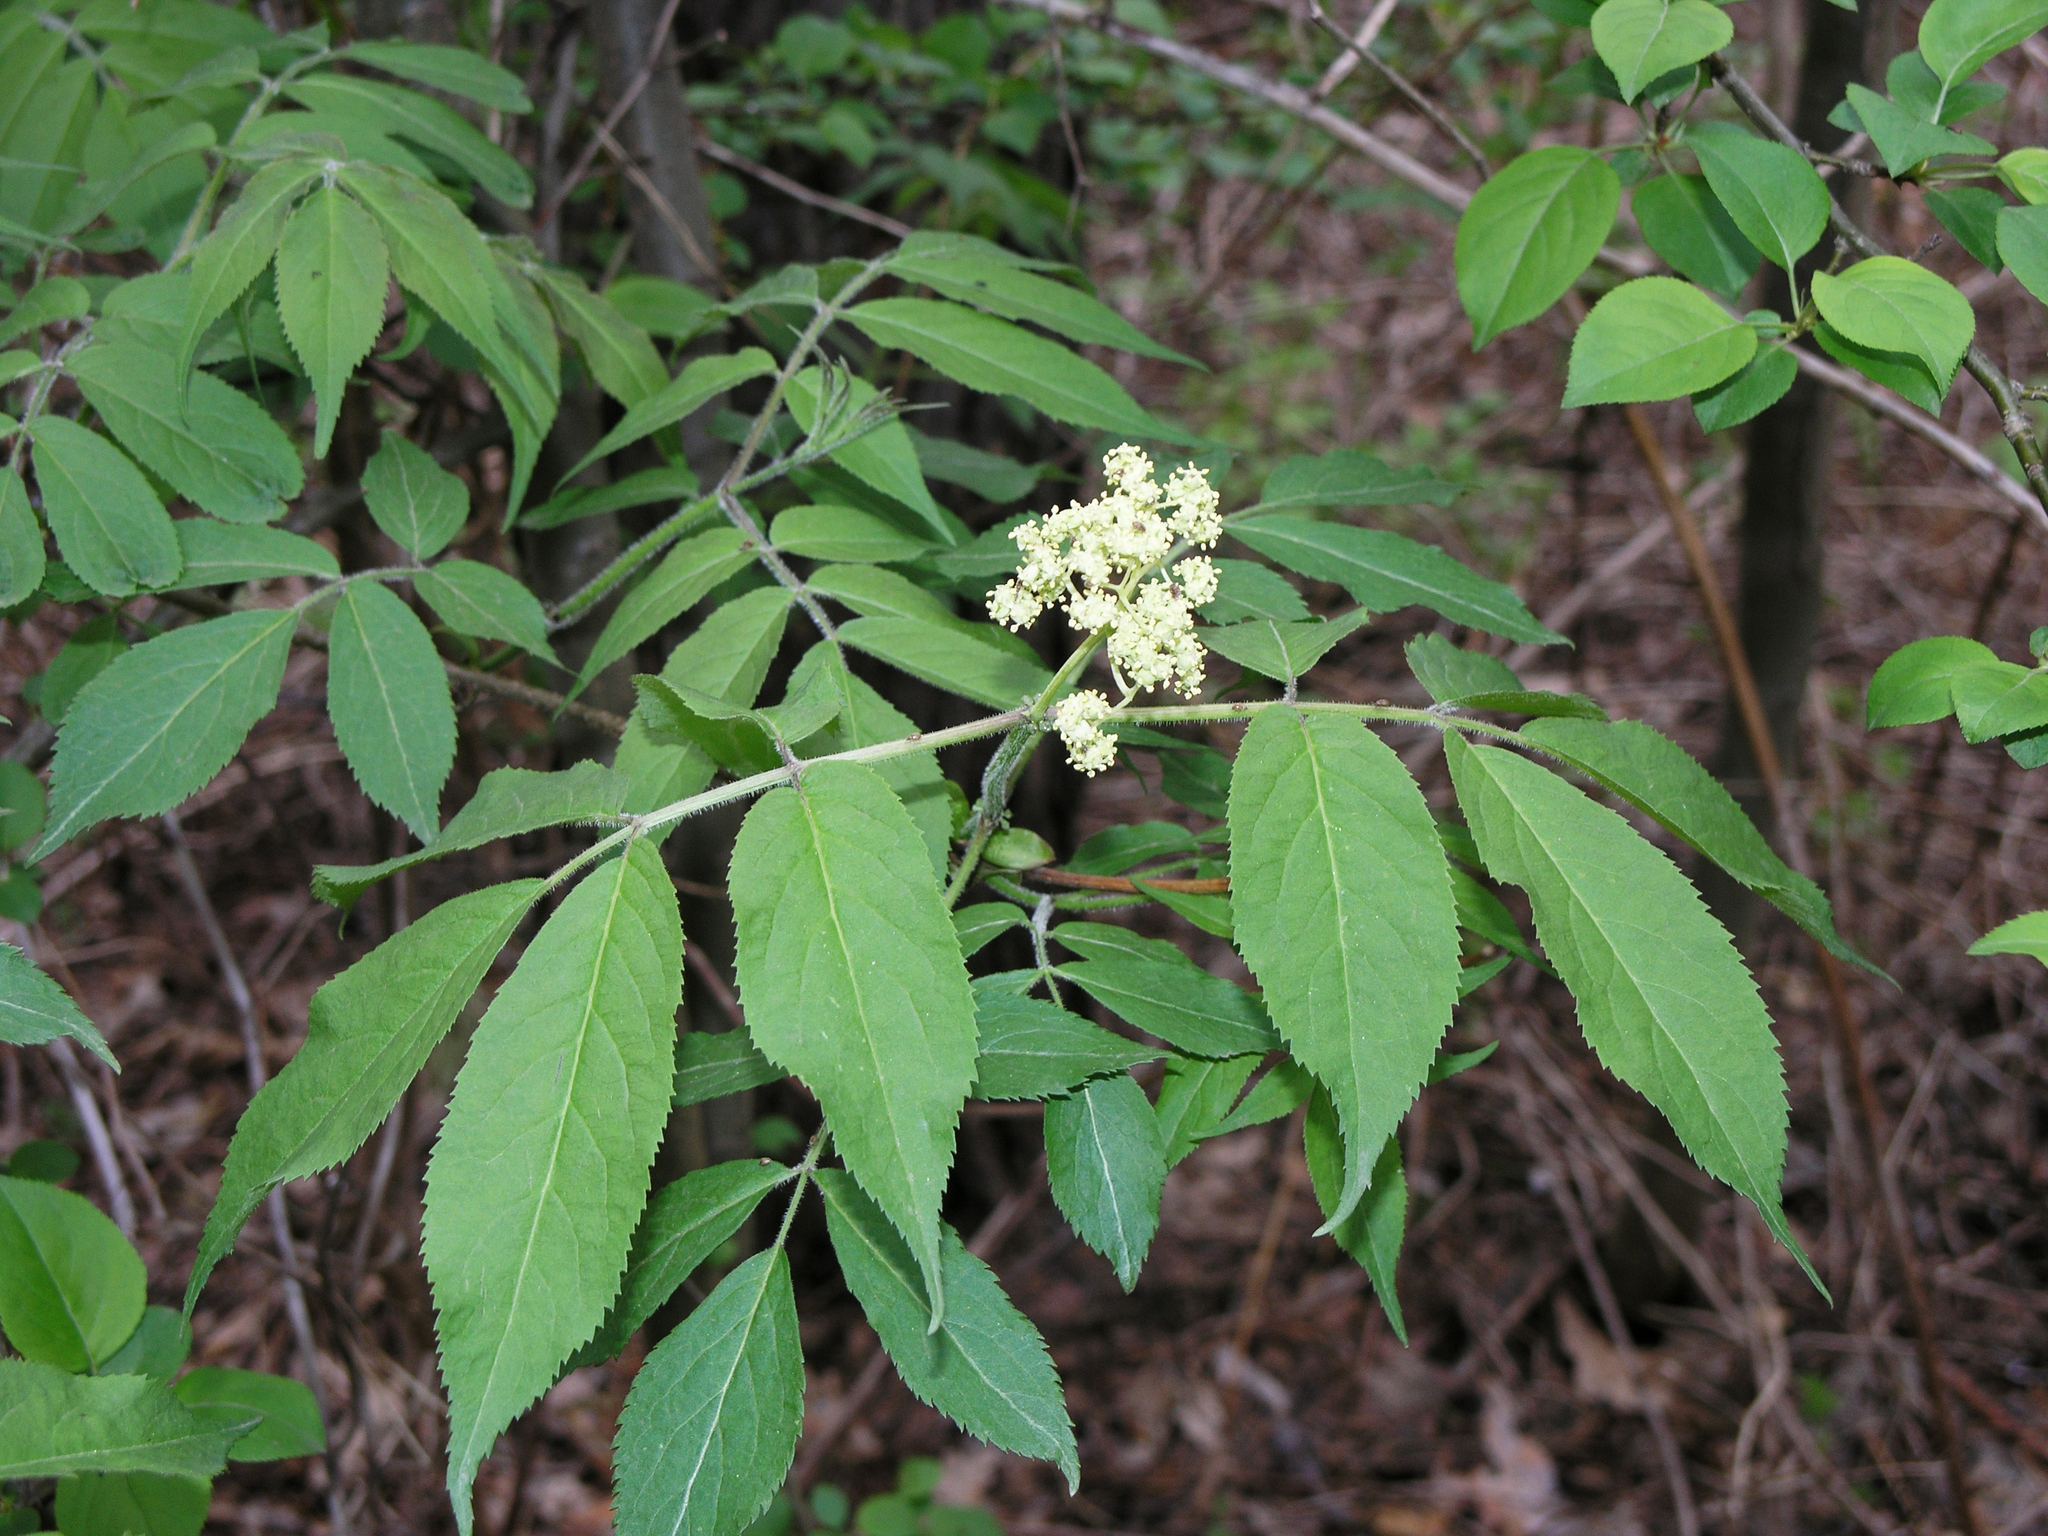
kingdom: Plantae
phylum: Tracheophyta
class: Magnoliopsida
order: Dipsacales
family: Viburnaceae
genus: Sambucus
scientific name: Sambucus racemosa
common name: Red-berried elder
